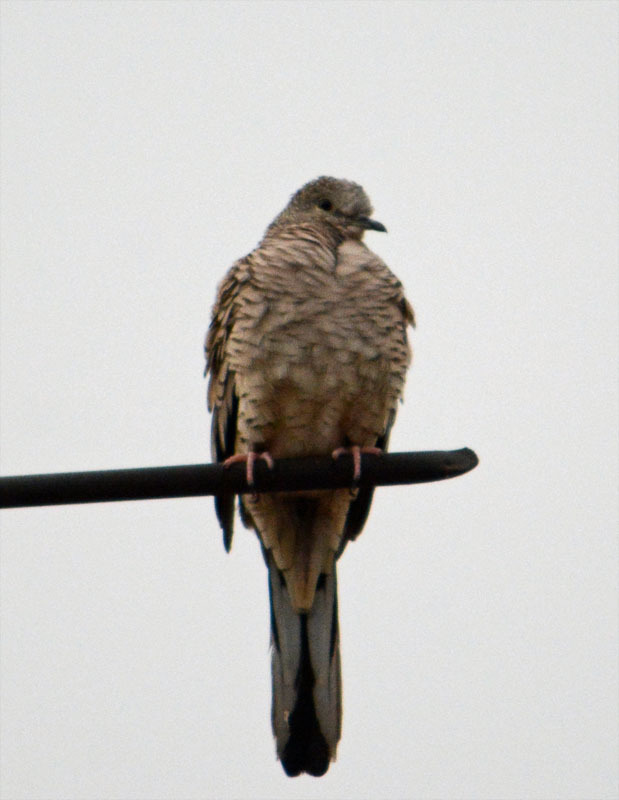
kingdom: Animalia
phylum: Chordata
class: Aves
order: Columbiformes
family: Columbidae
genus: Columbina
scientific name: Columbina inca
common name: Inca dove
